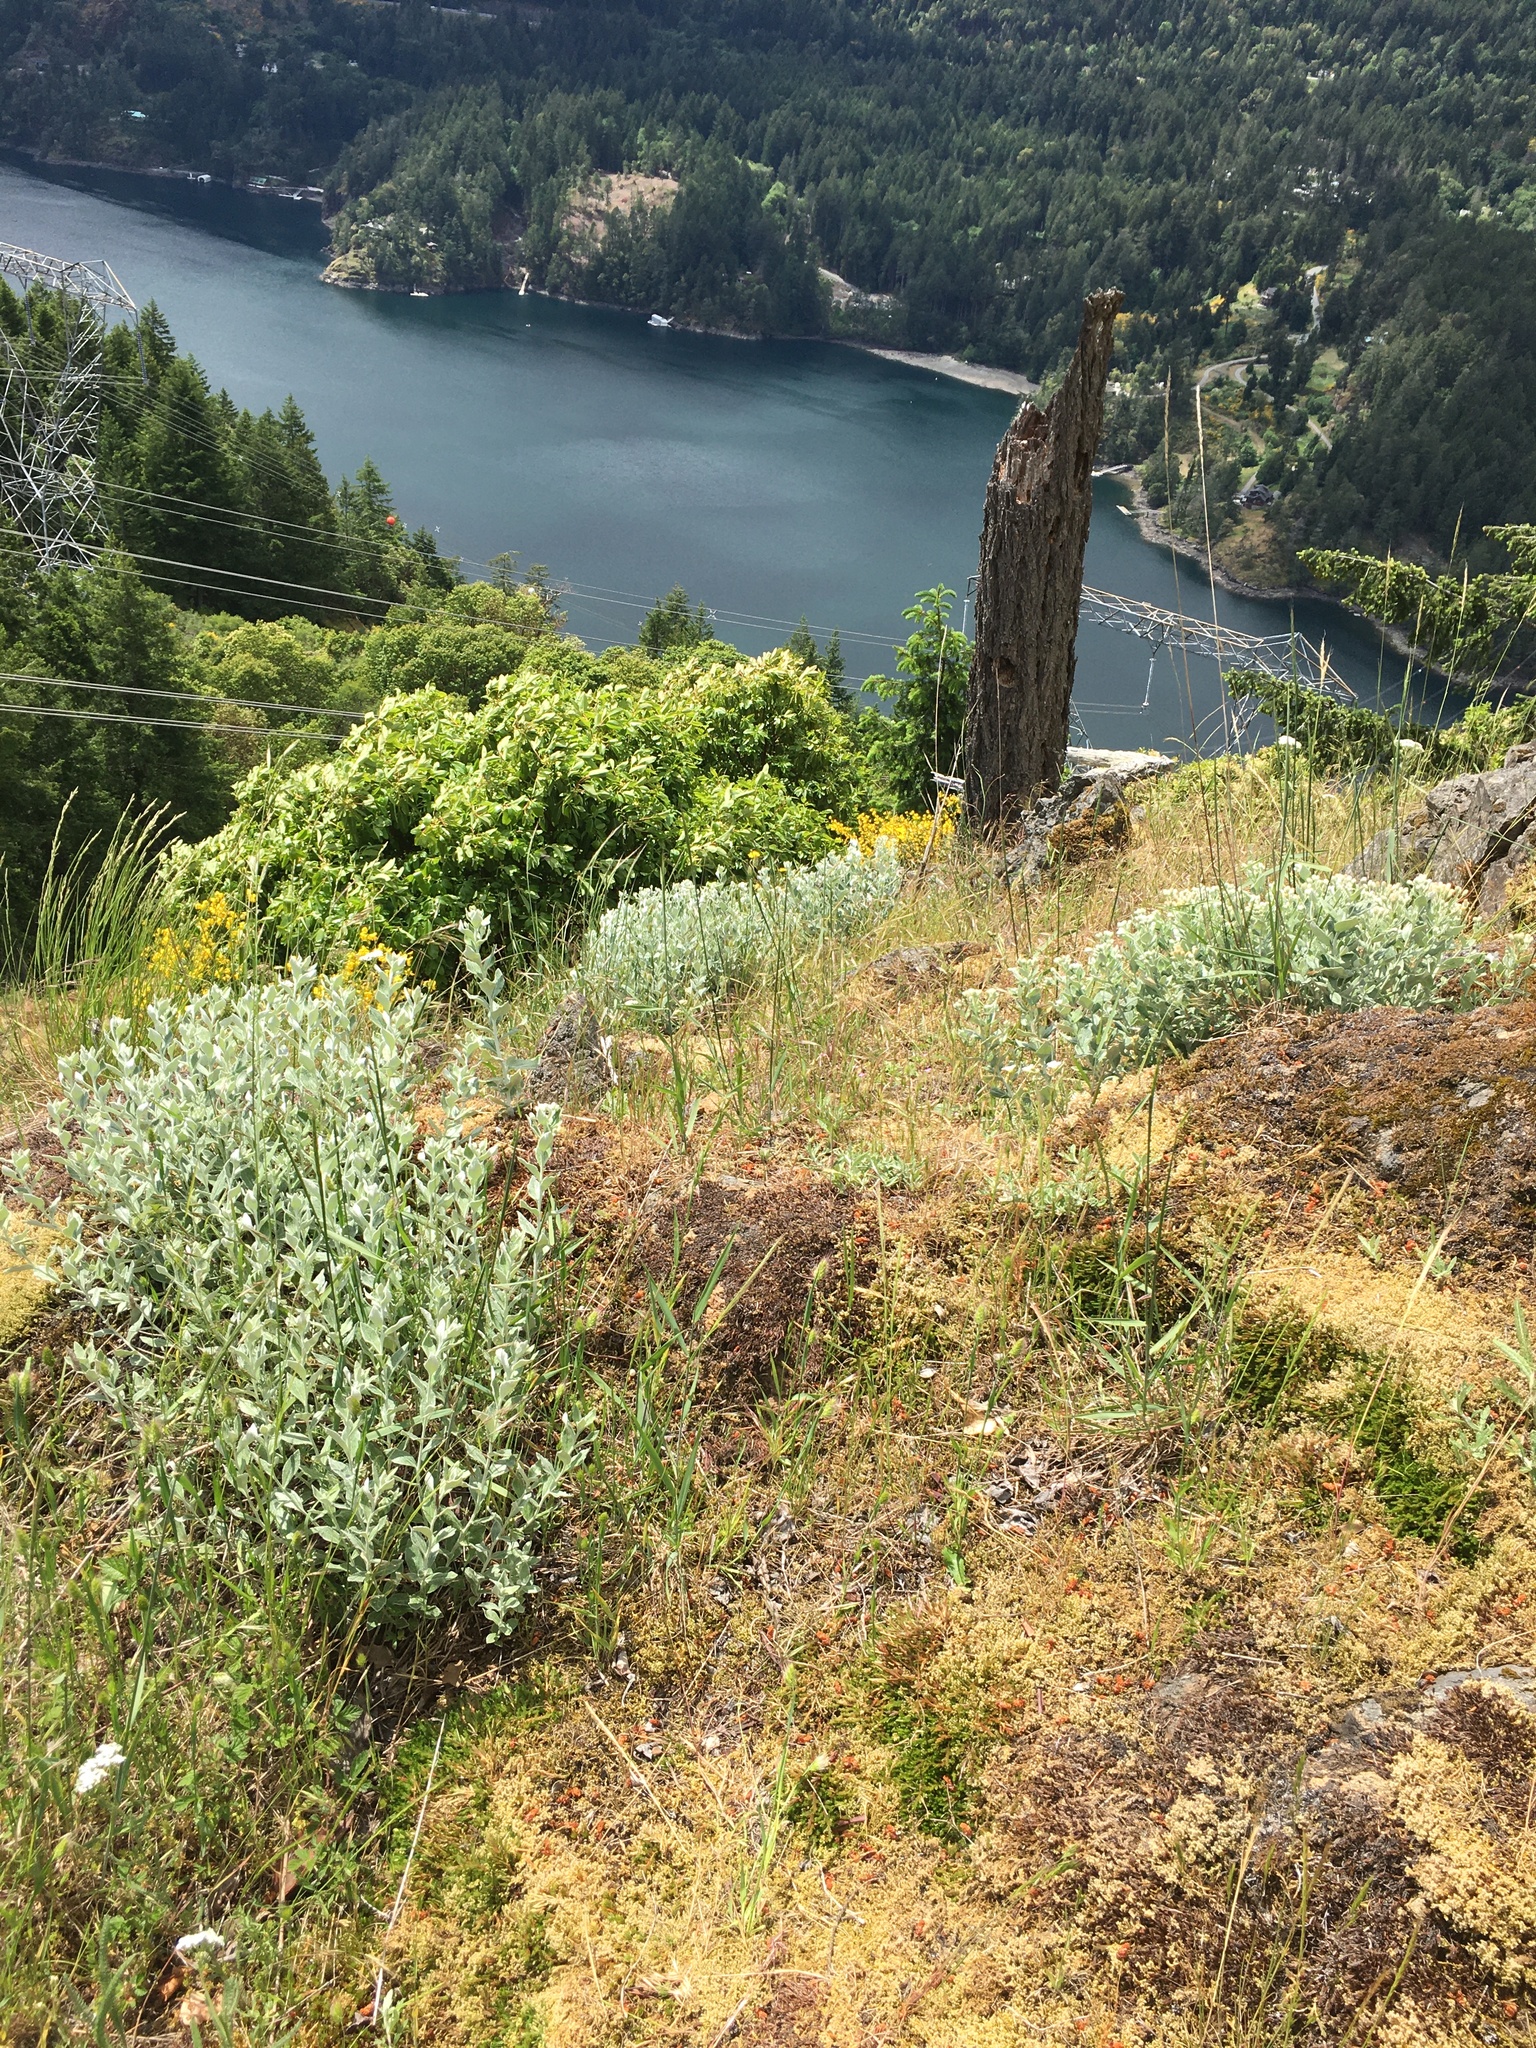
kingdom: Plantae
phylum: Tracheophyta
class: Magnoliopsida
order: Asterales
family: Asteraceae
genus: Luina
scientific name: Luina hypoleuca
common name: Little-leaved luina
